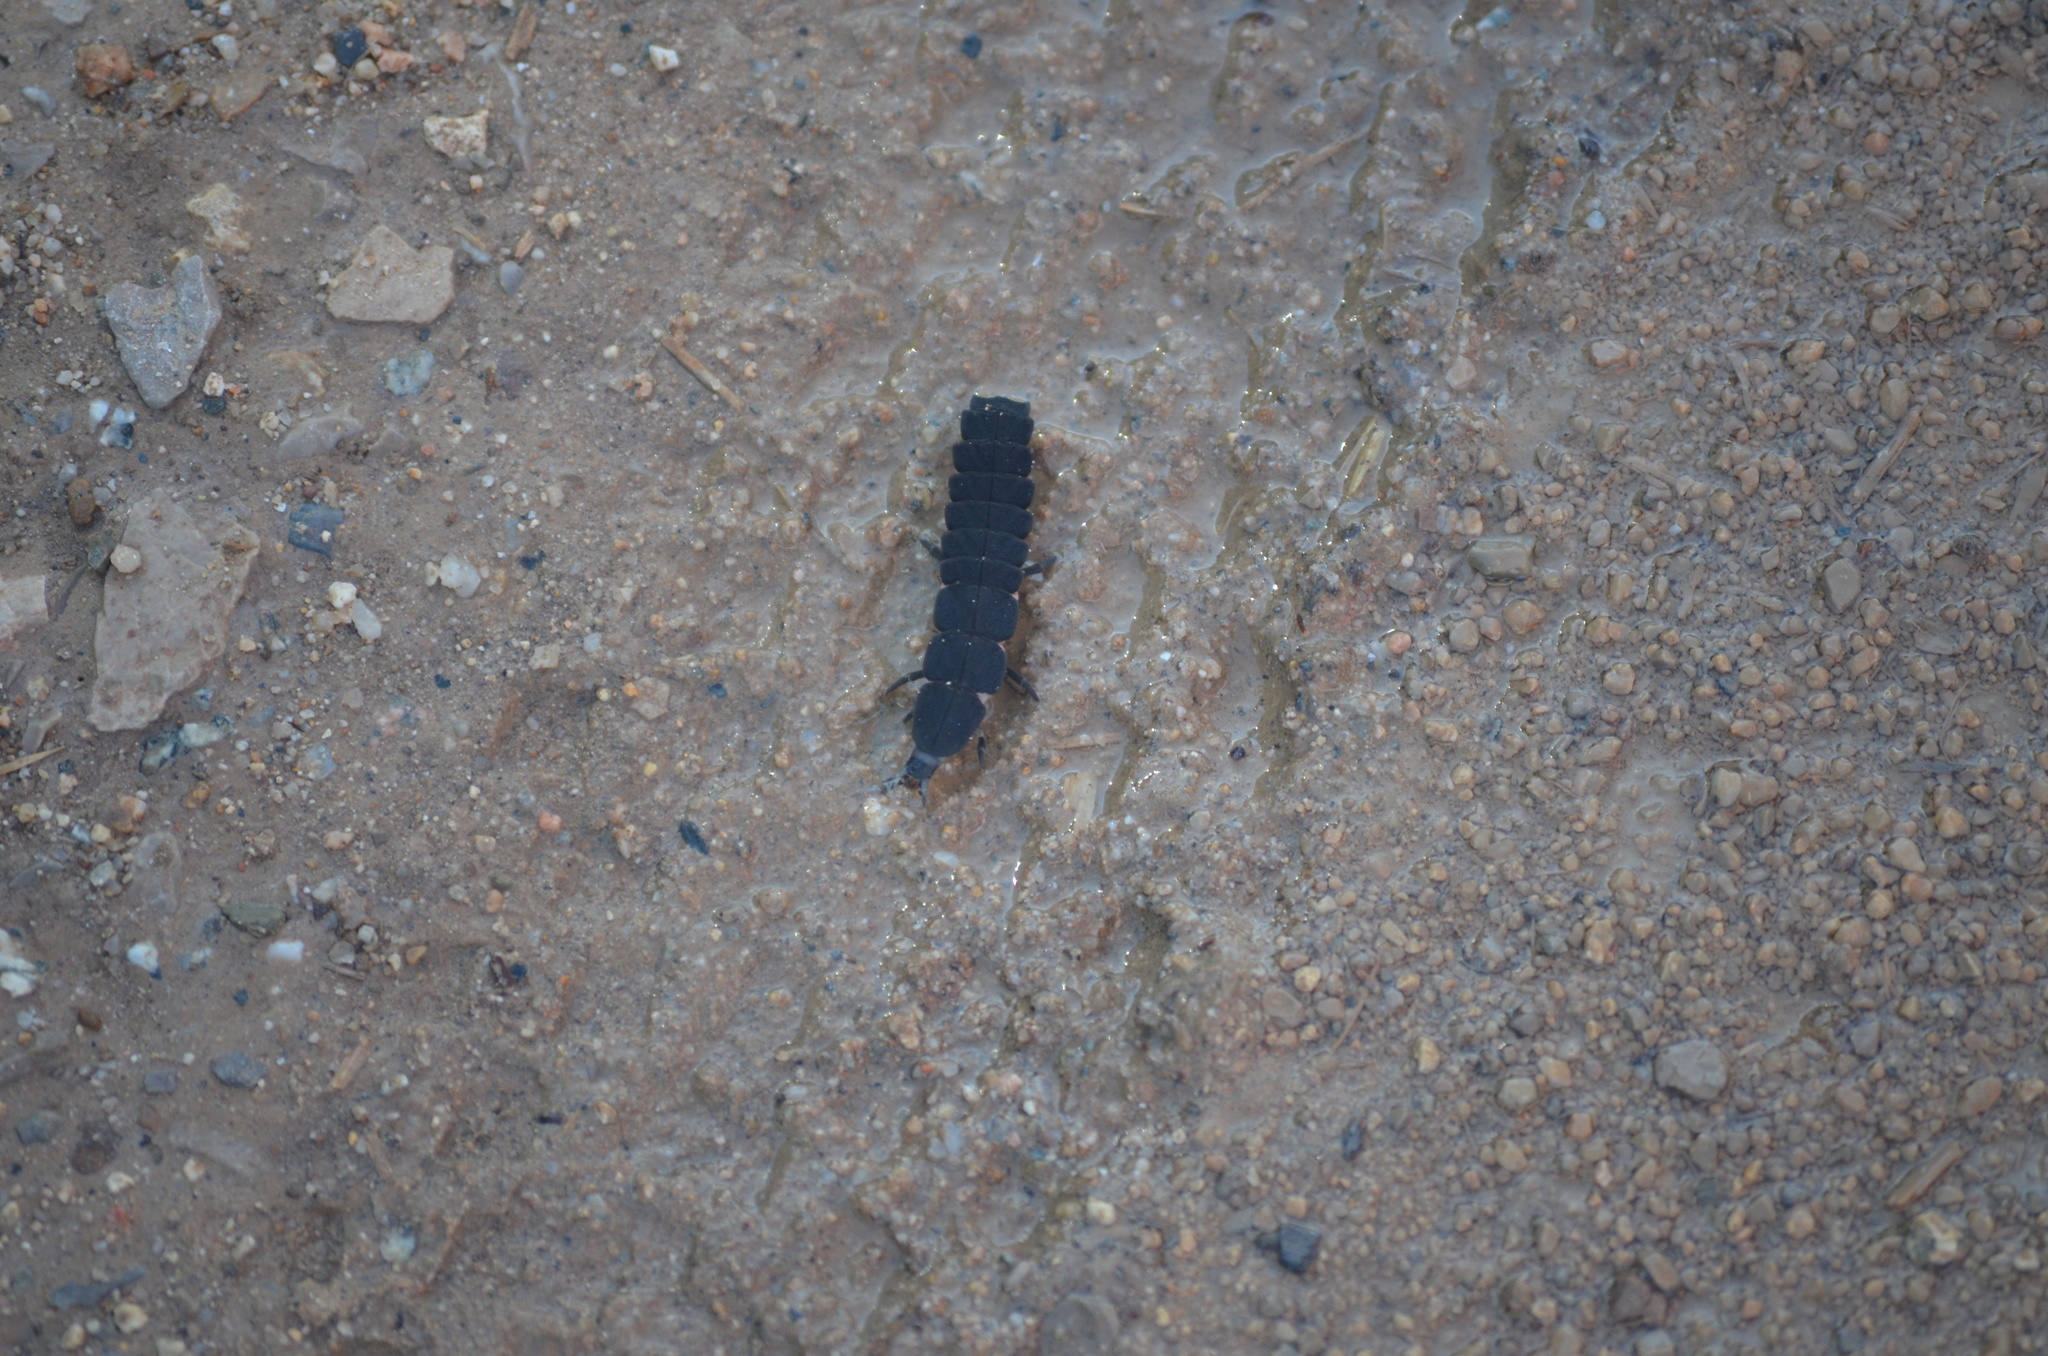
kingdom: Animalia
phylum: Arthropoda
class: Insecta
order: Coleoptera
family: Lampyridae
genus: Nyctophila
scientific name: Nyctophila reichii
